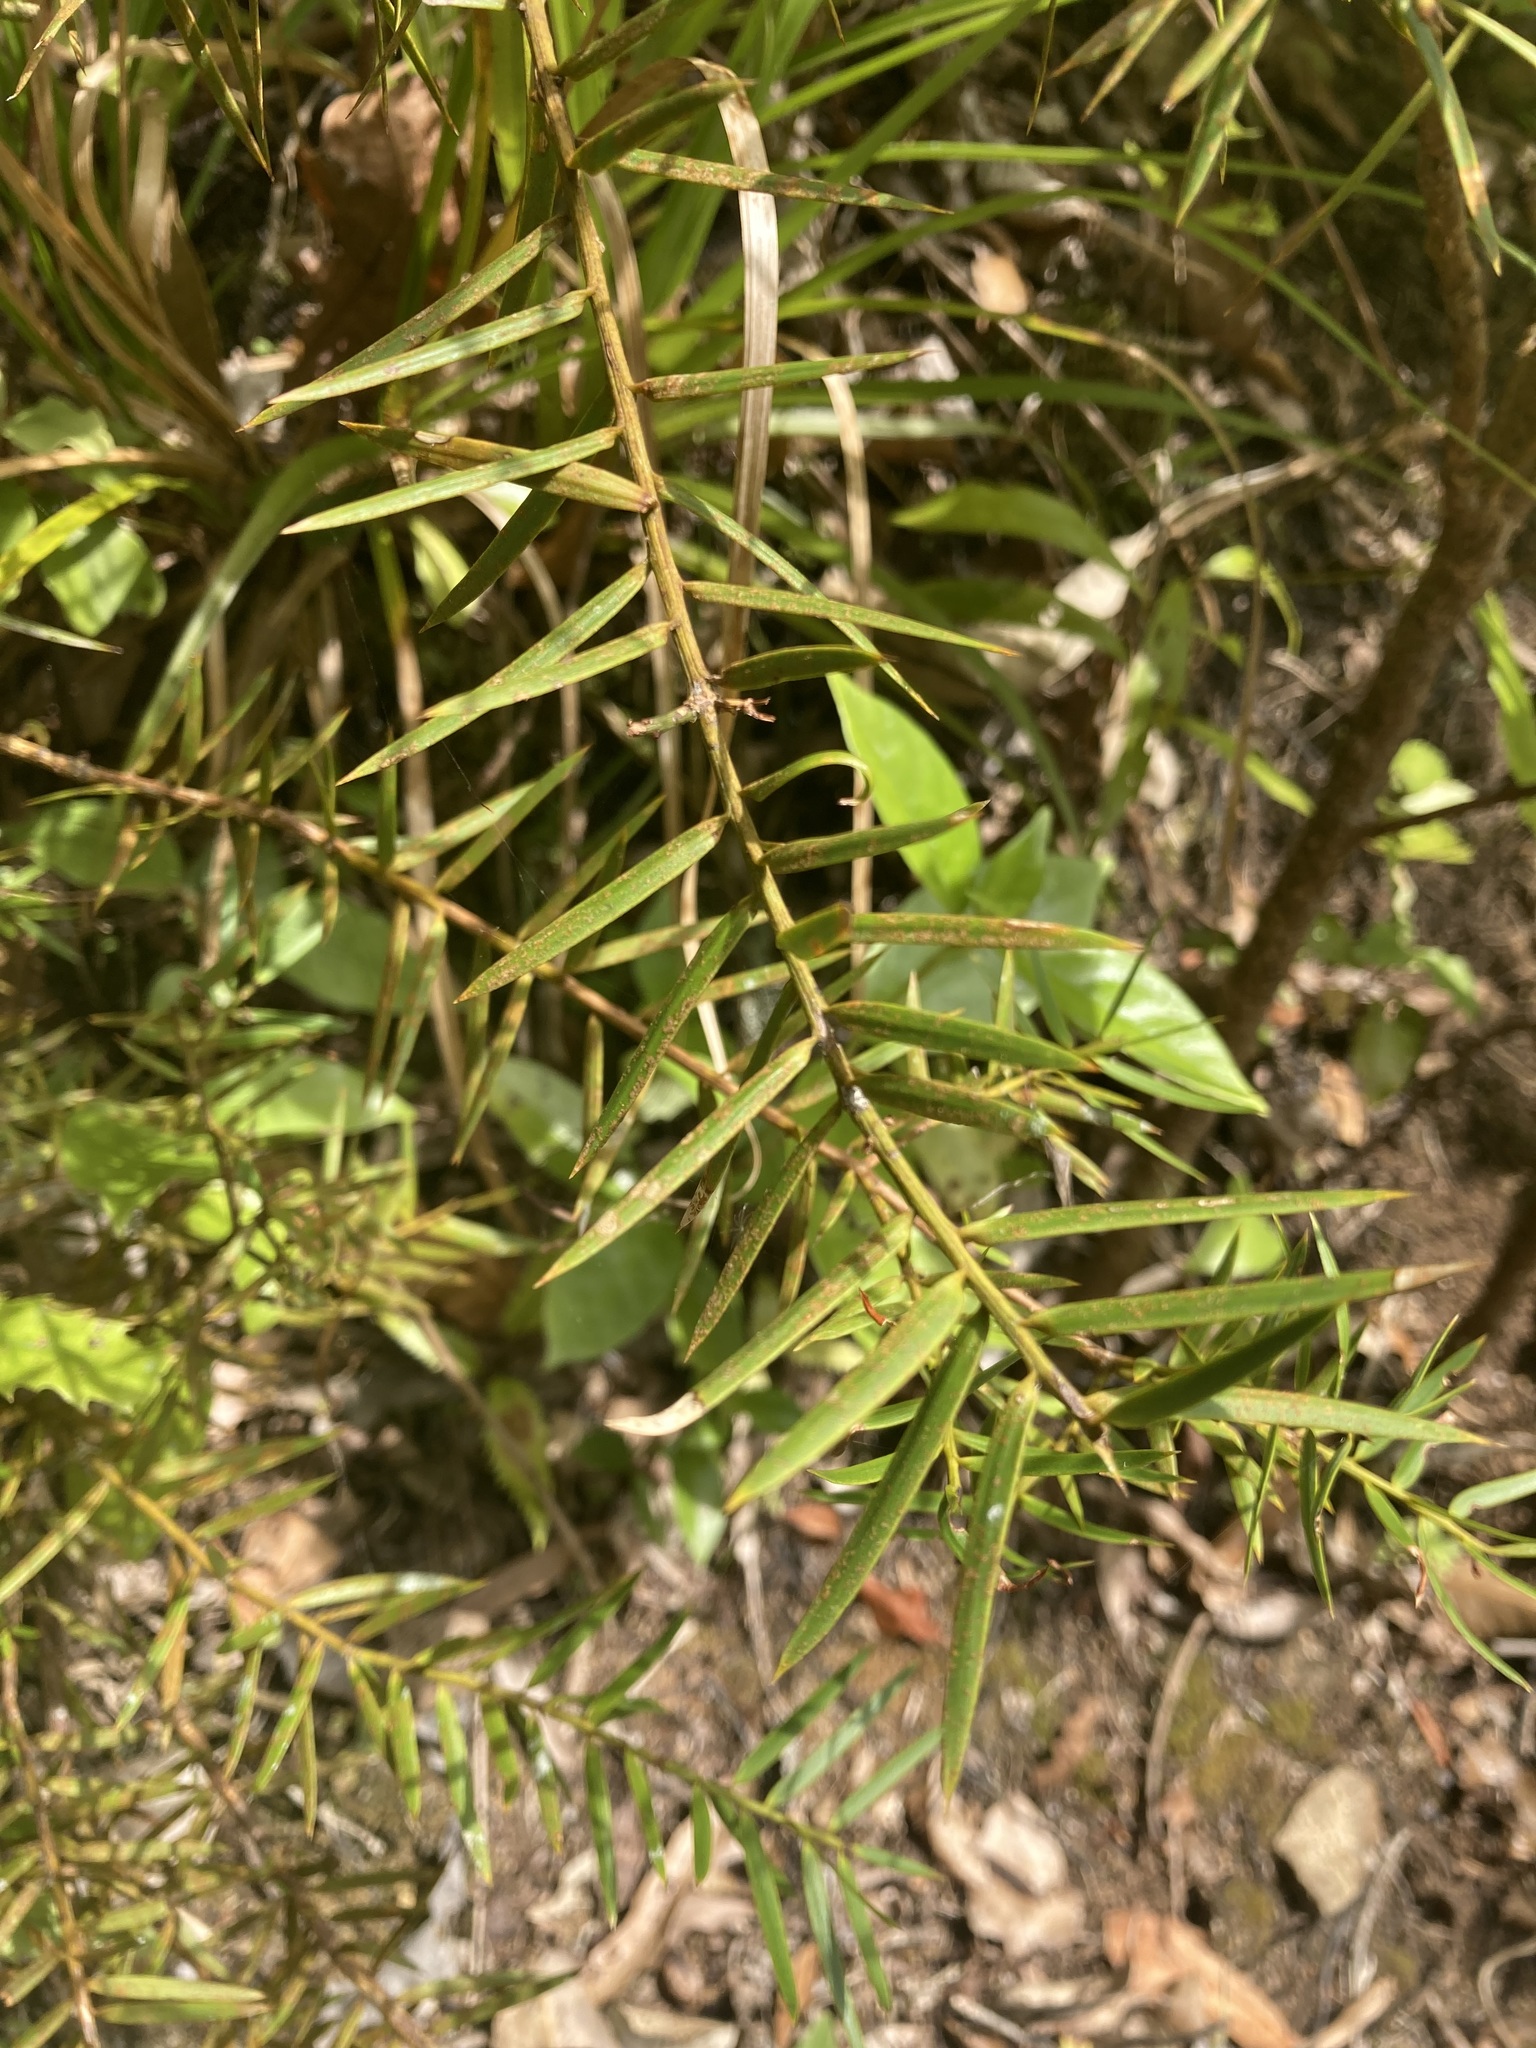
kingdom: Plantae
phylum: Tracheophyta
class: Pinopsida
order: Pinales
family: Podocarpaceae
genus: Podocarpus
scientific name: Podocarpus totara
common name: Totara
